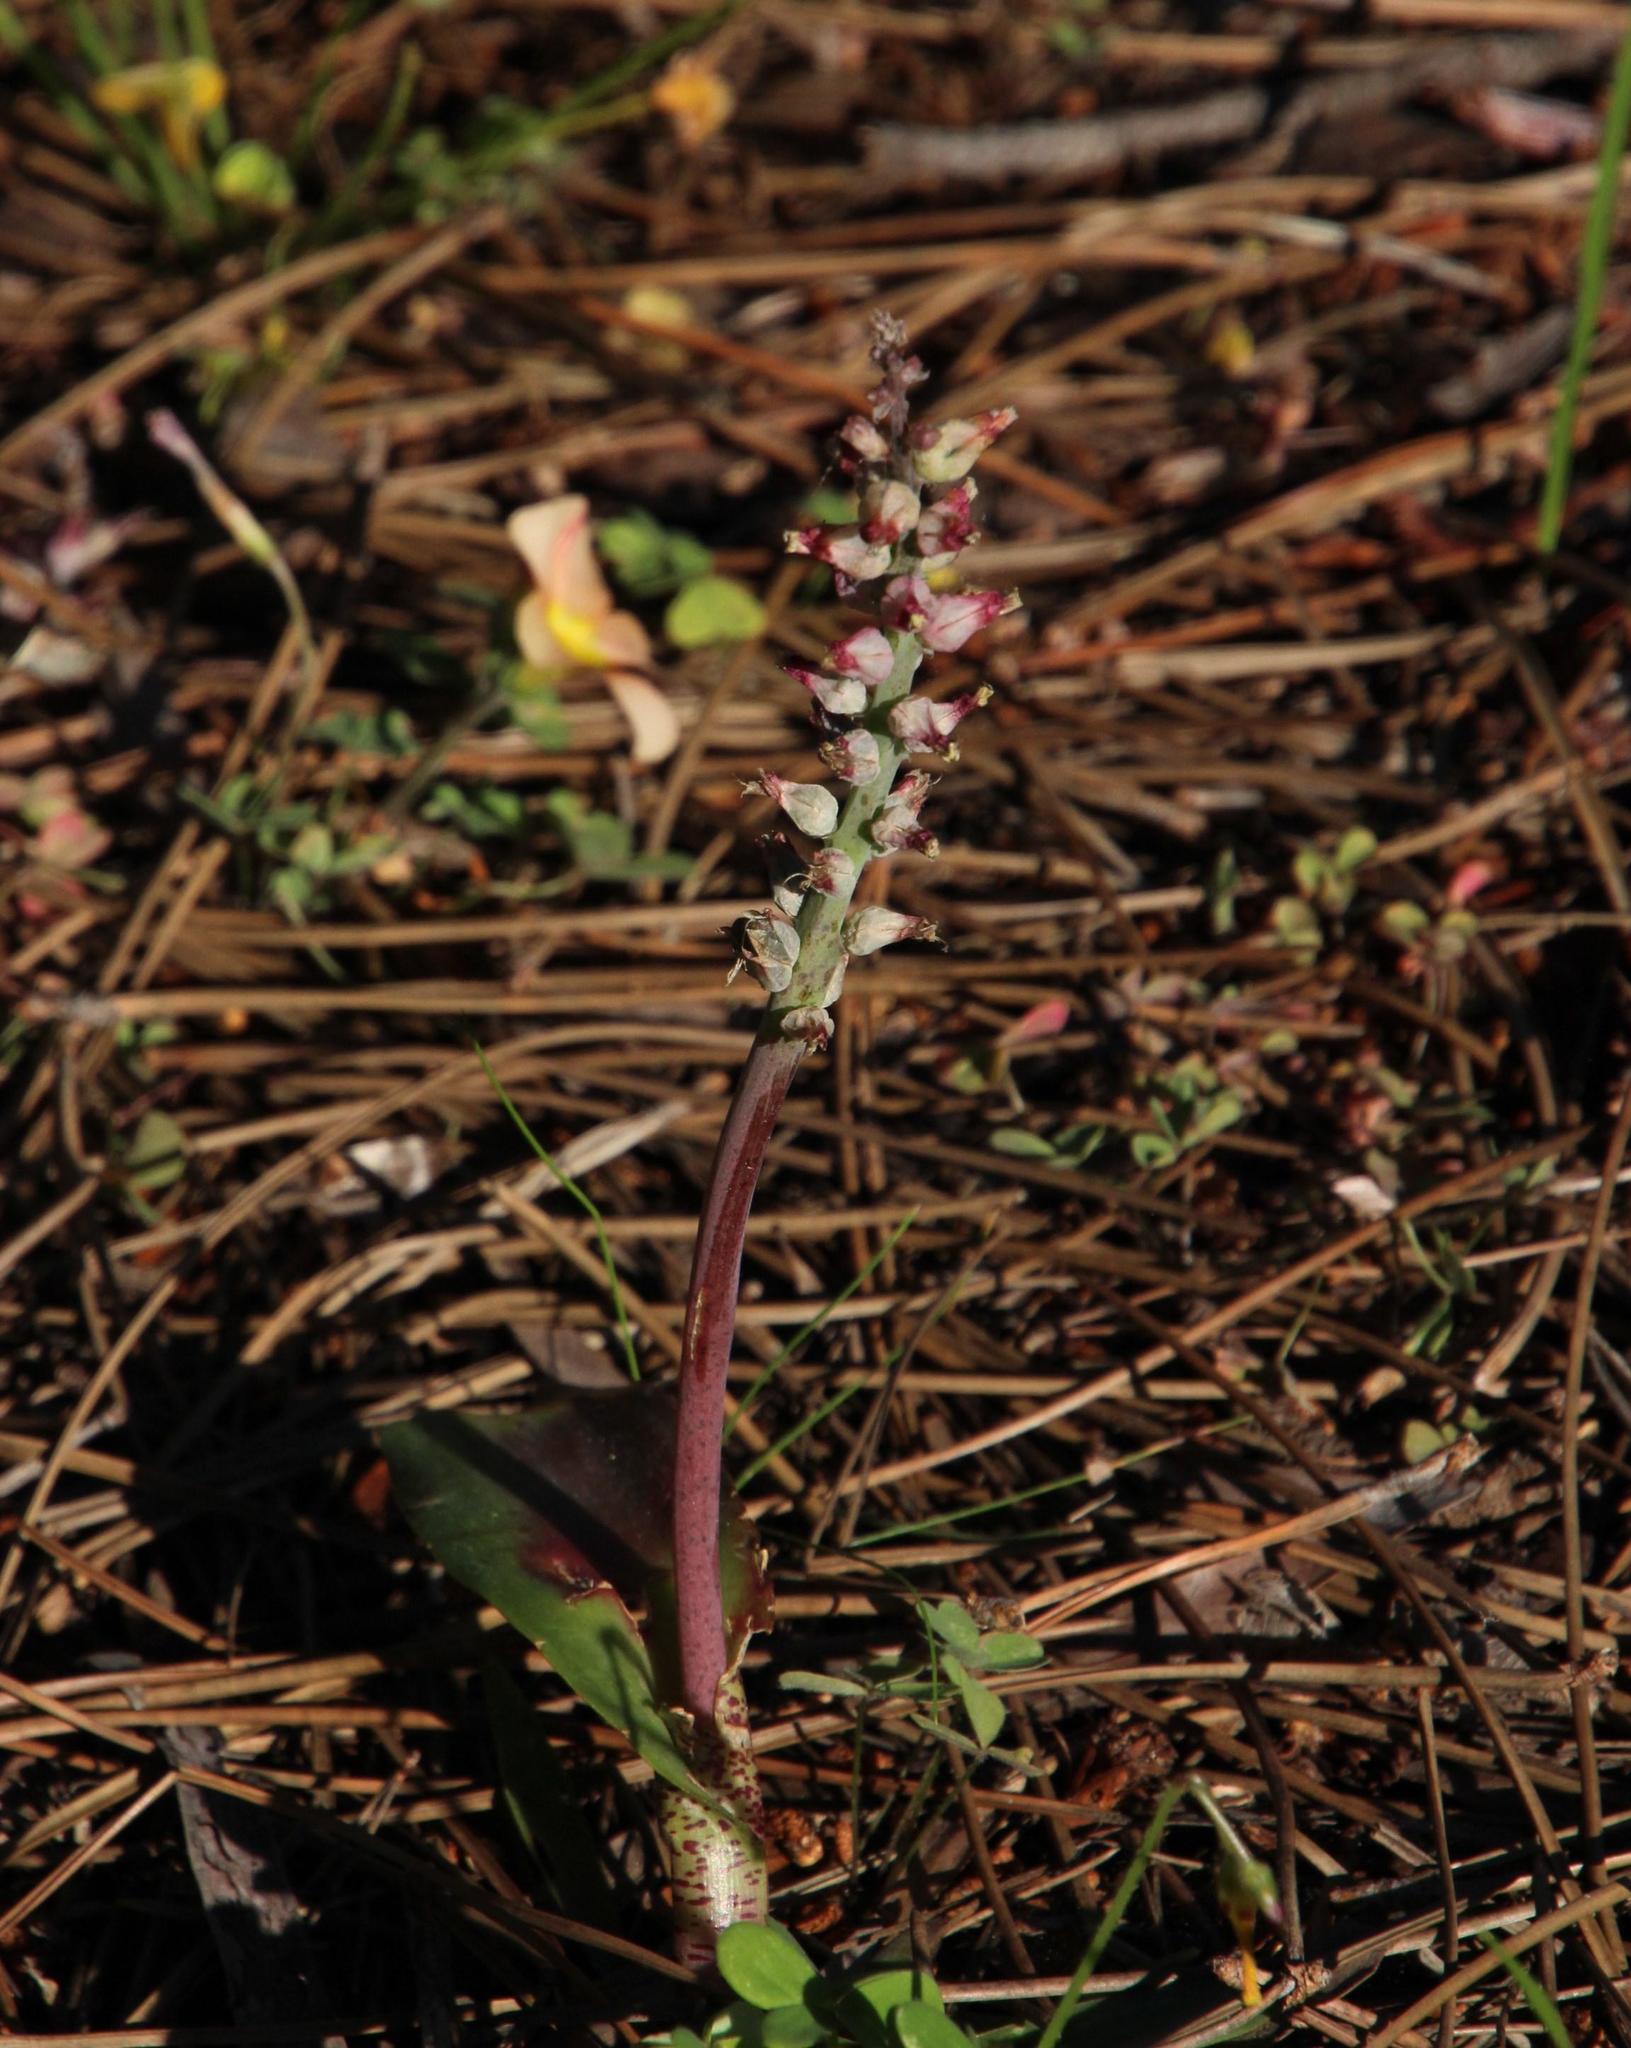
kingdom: Plantae
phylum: Tracheophyta
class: Liliopsida
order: Asparagales
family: Asparagaceae
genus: Lachenalia
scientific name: Lachenalia orchioides
